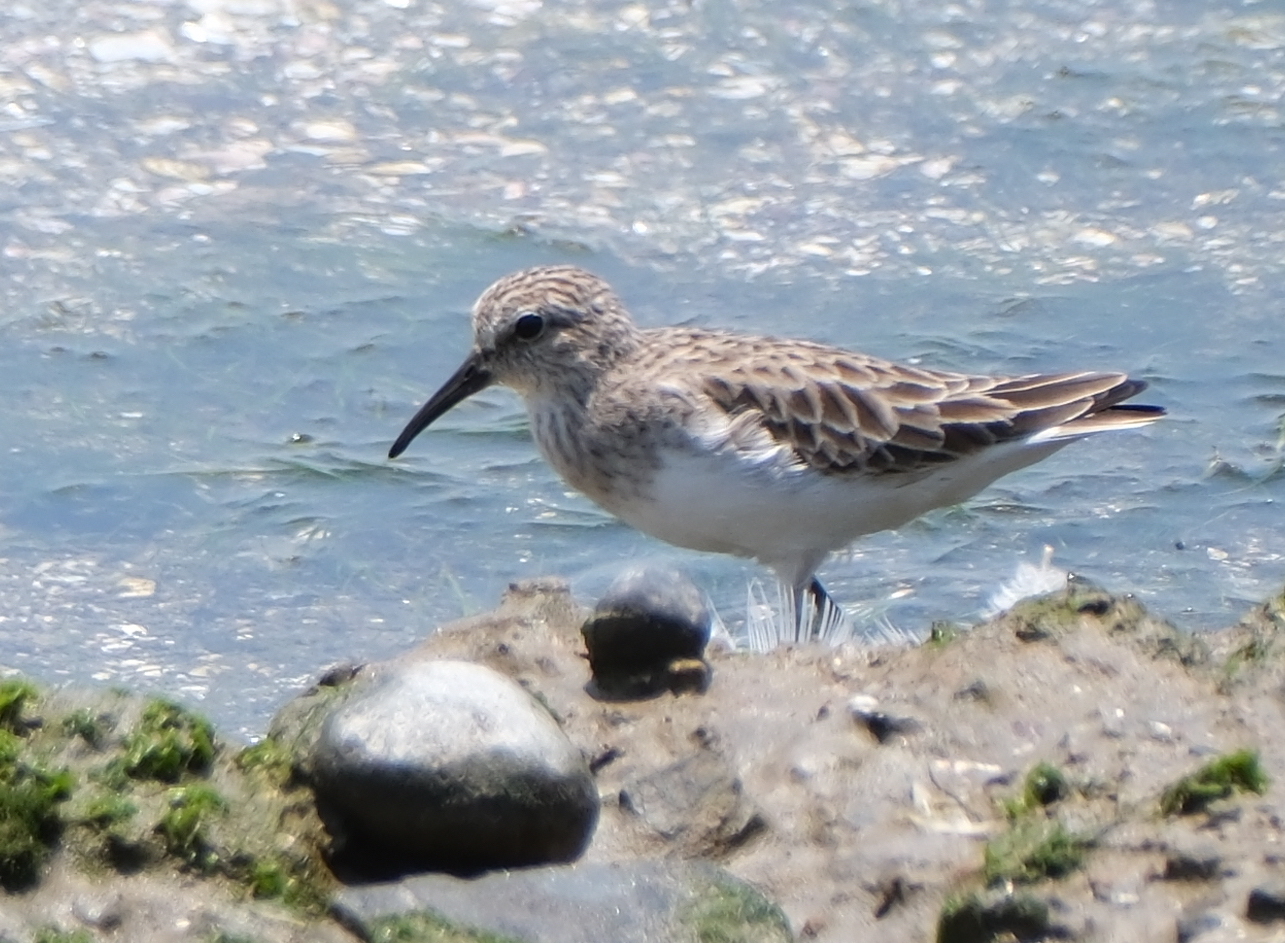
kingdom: Animalia
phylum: Chordata
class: Aves
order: Charadriiformes
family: Scolopacidae
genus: Calidris
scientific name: Calidris minutilla
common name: Least sandpiper
